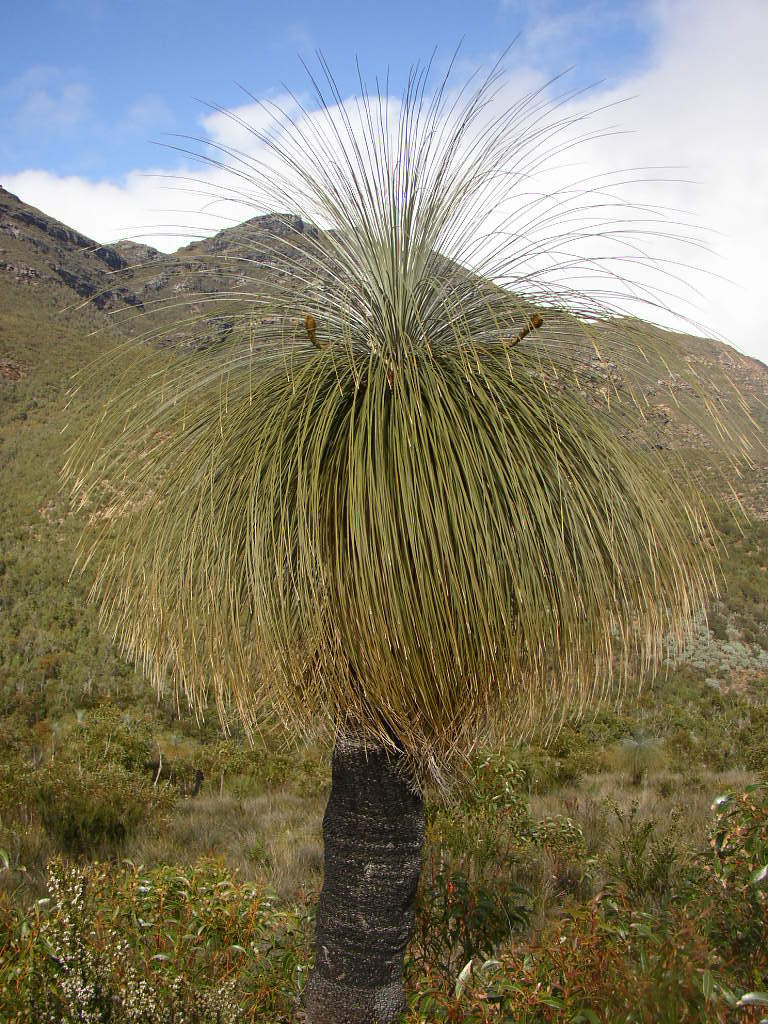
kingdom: Plantae
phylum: Tracheophyta
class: Liliopsida
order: Arecales
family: Dasypogonaceae
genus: Kingia
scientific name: Kingia australis
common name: Black gin
